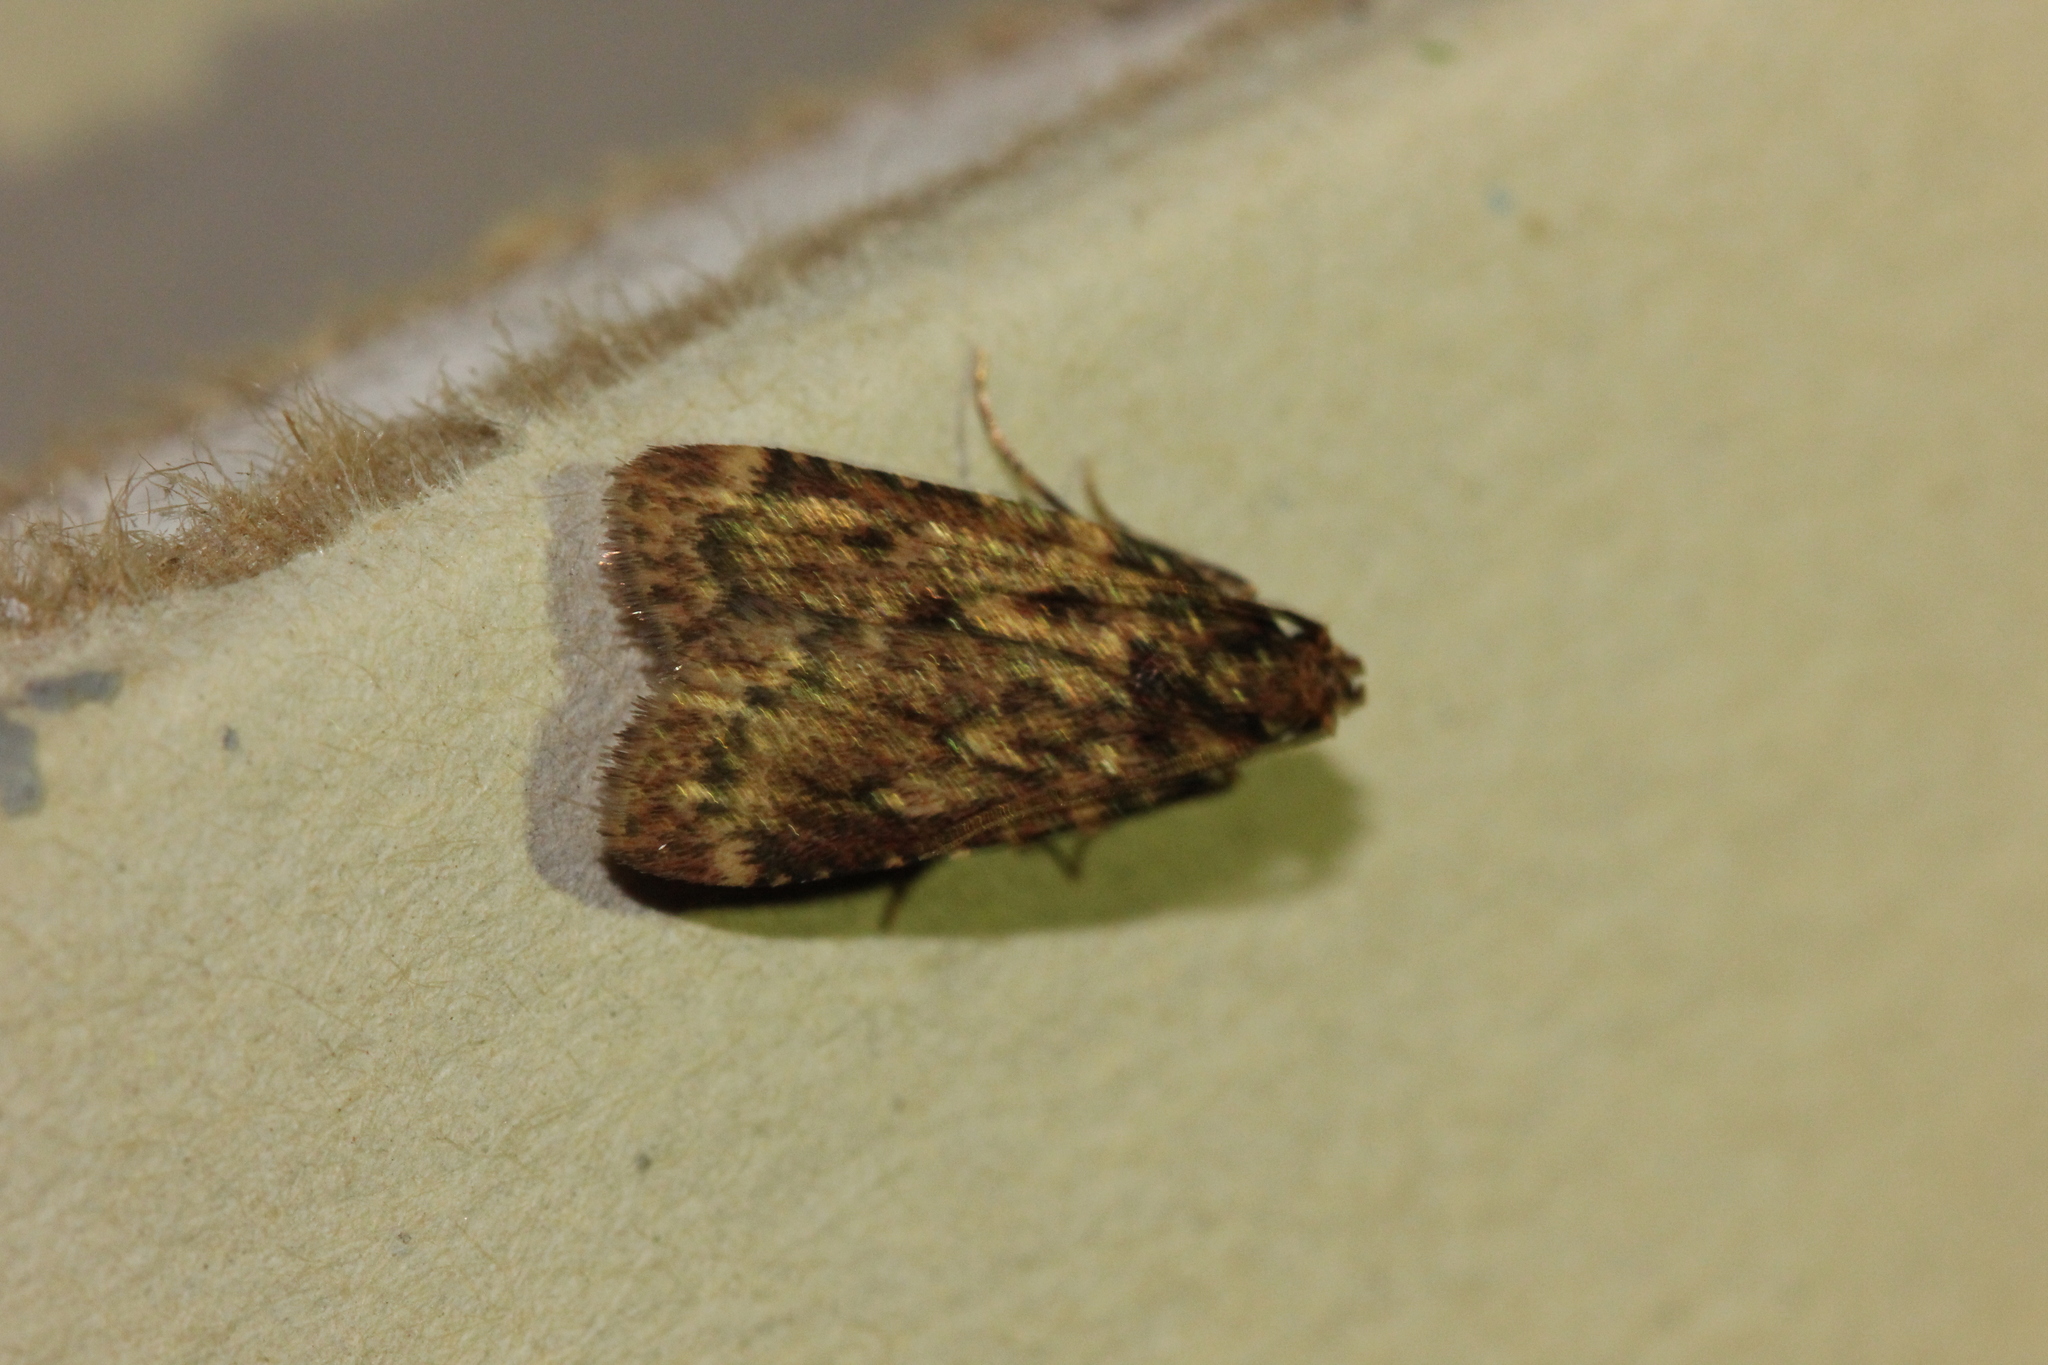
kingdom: Animalia
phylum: Arthropoda
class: Insecta
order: Lepidoptera
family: Pyralidae
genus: Aglossa
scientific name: Aglossa cuprina
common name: Grease moth
